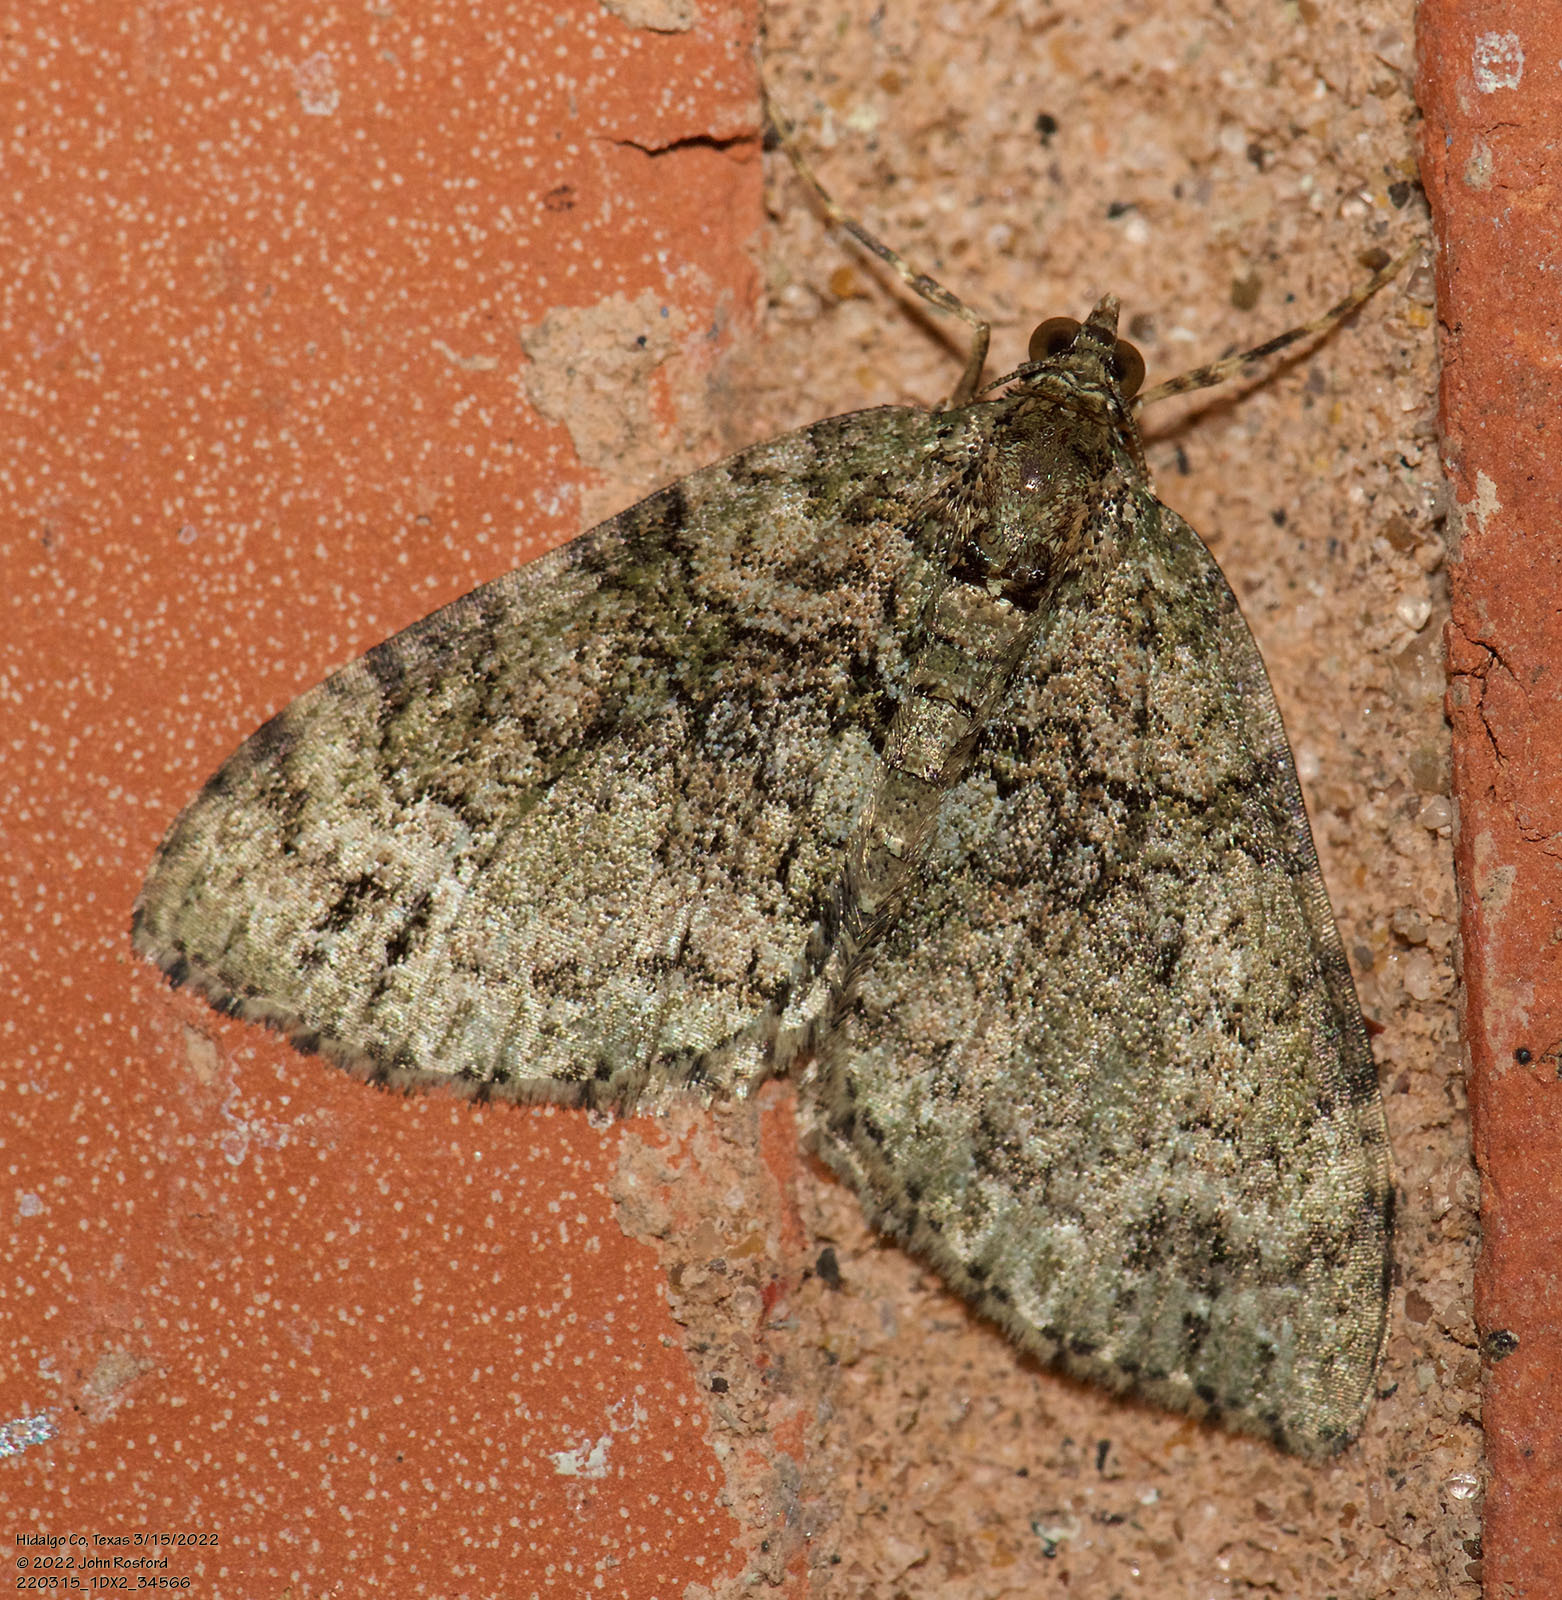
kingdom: Animalia
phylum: Arthropoda
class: Insecta
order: Lepidoptera
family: Geometridae
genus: Hammaptera
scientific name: Hammaptera parinotata
